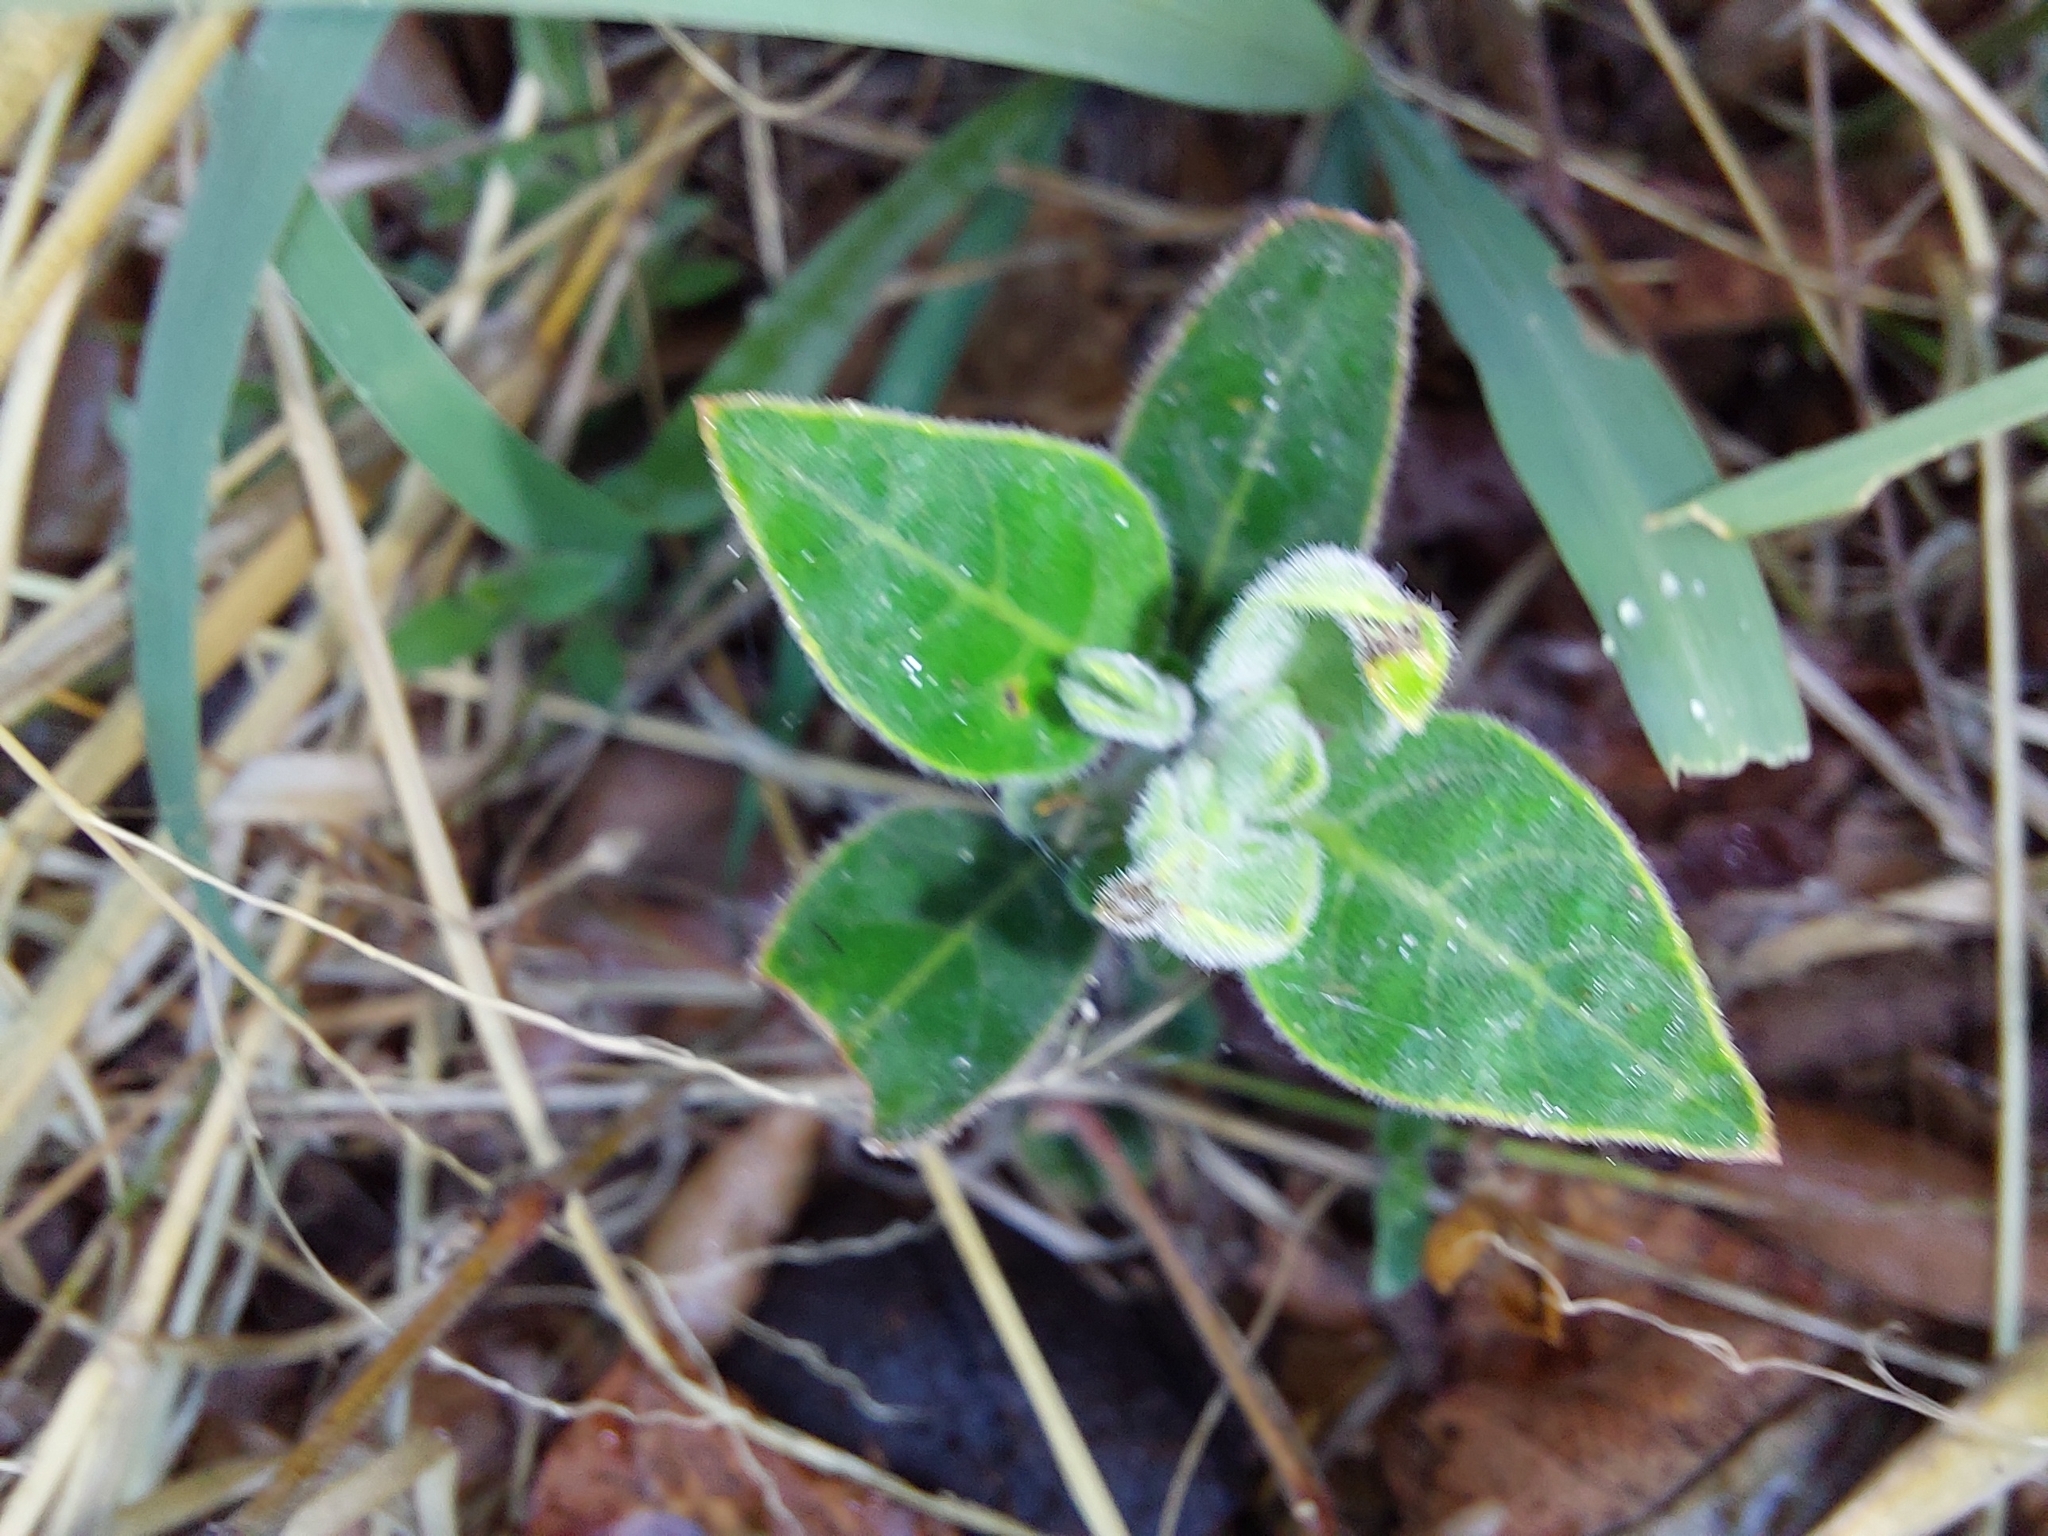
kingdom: Plantae
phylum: Tracheophyta
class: Magnoliopsida
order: Lamiales
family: Acanthaceae
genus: Ruellia
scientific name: Ruellia cordata
